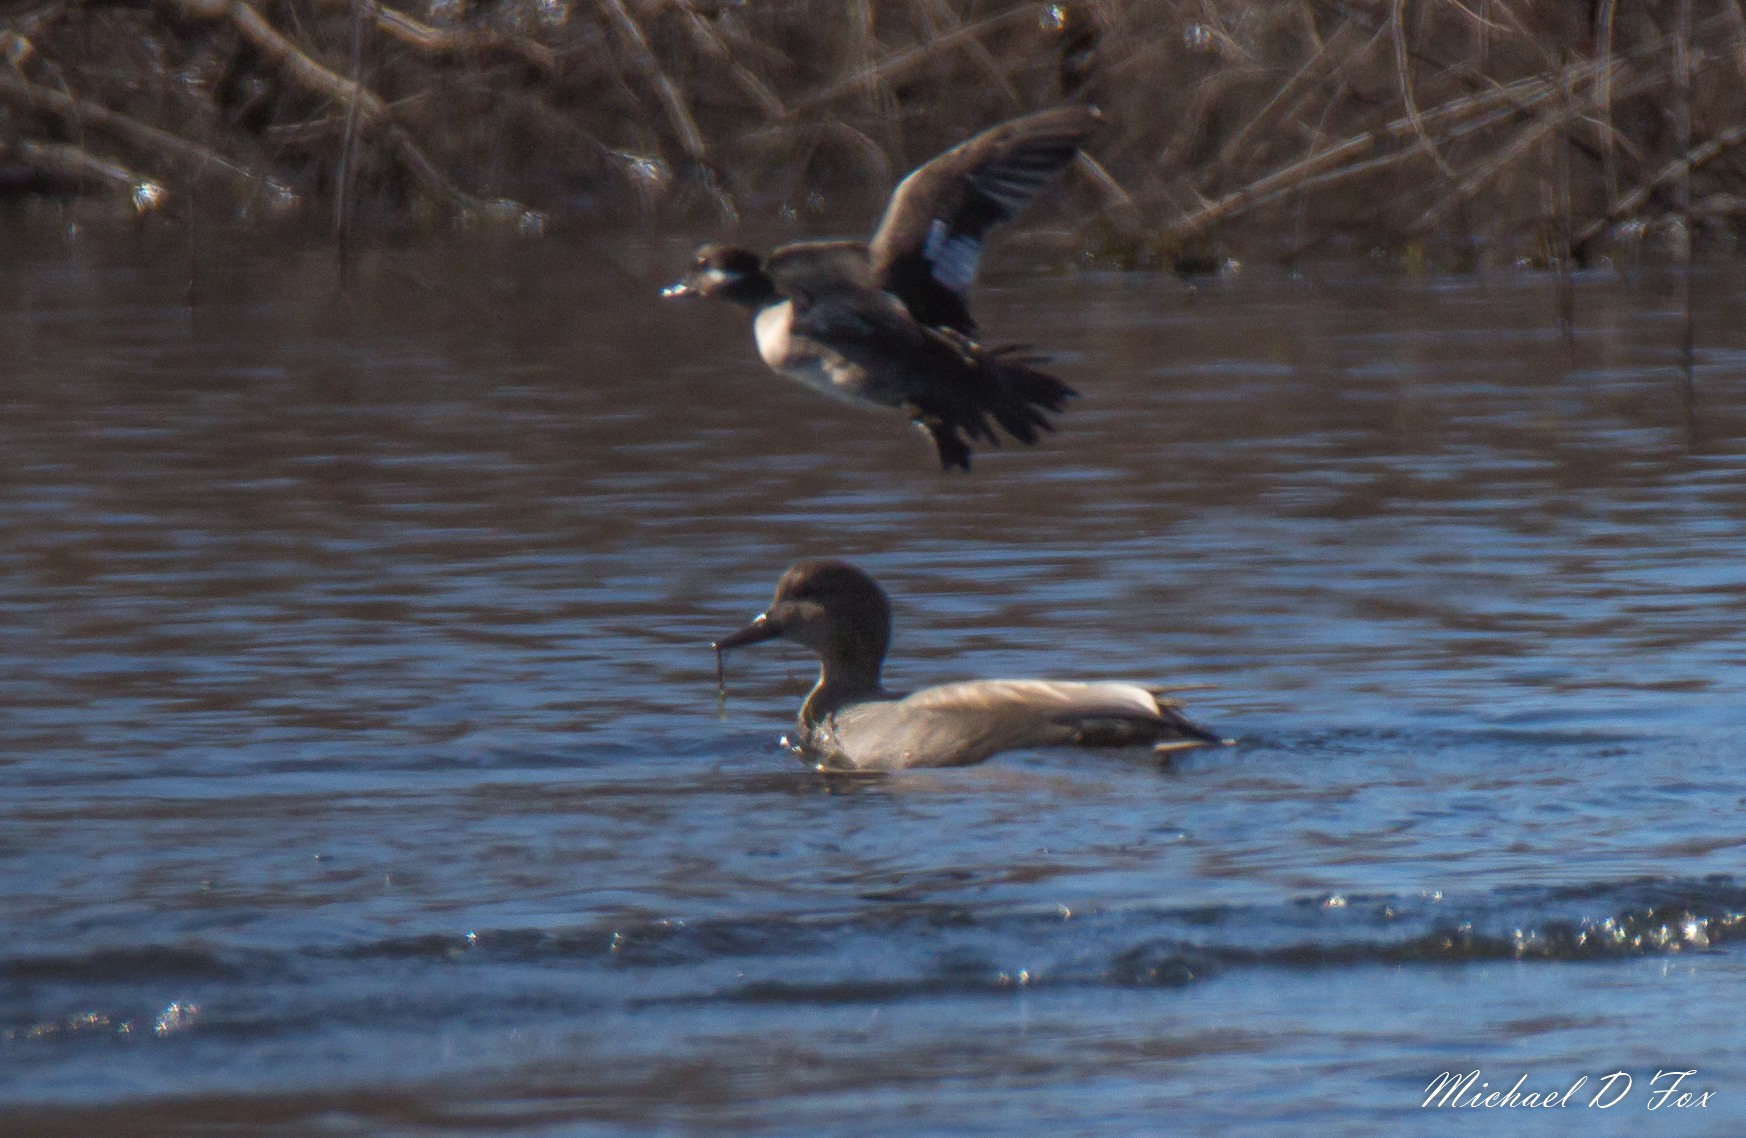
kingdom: Animalia
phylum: Chordata
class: Aves
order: Anseriformes
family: Anatidae
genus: Mareca
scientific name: Mareca strepera
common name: Gadwall
